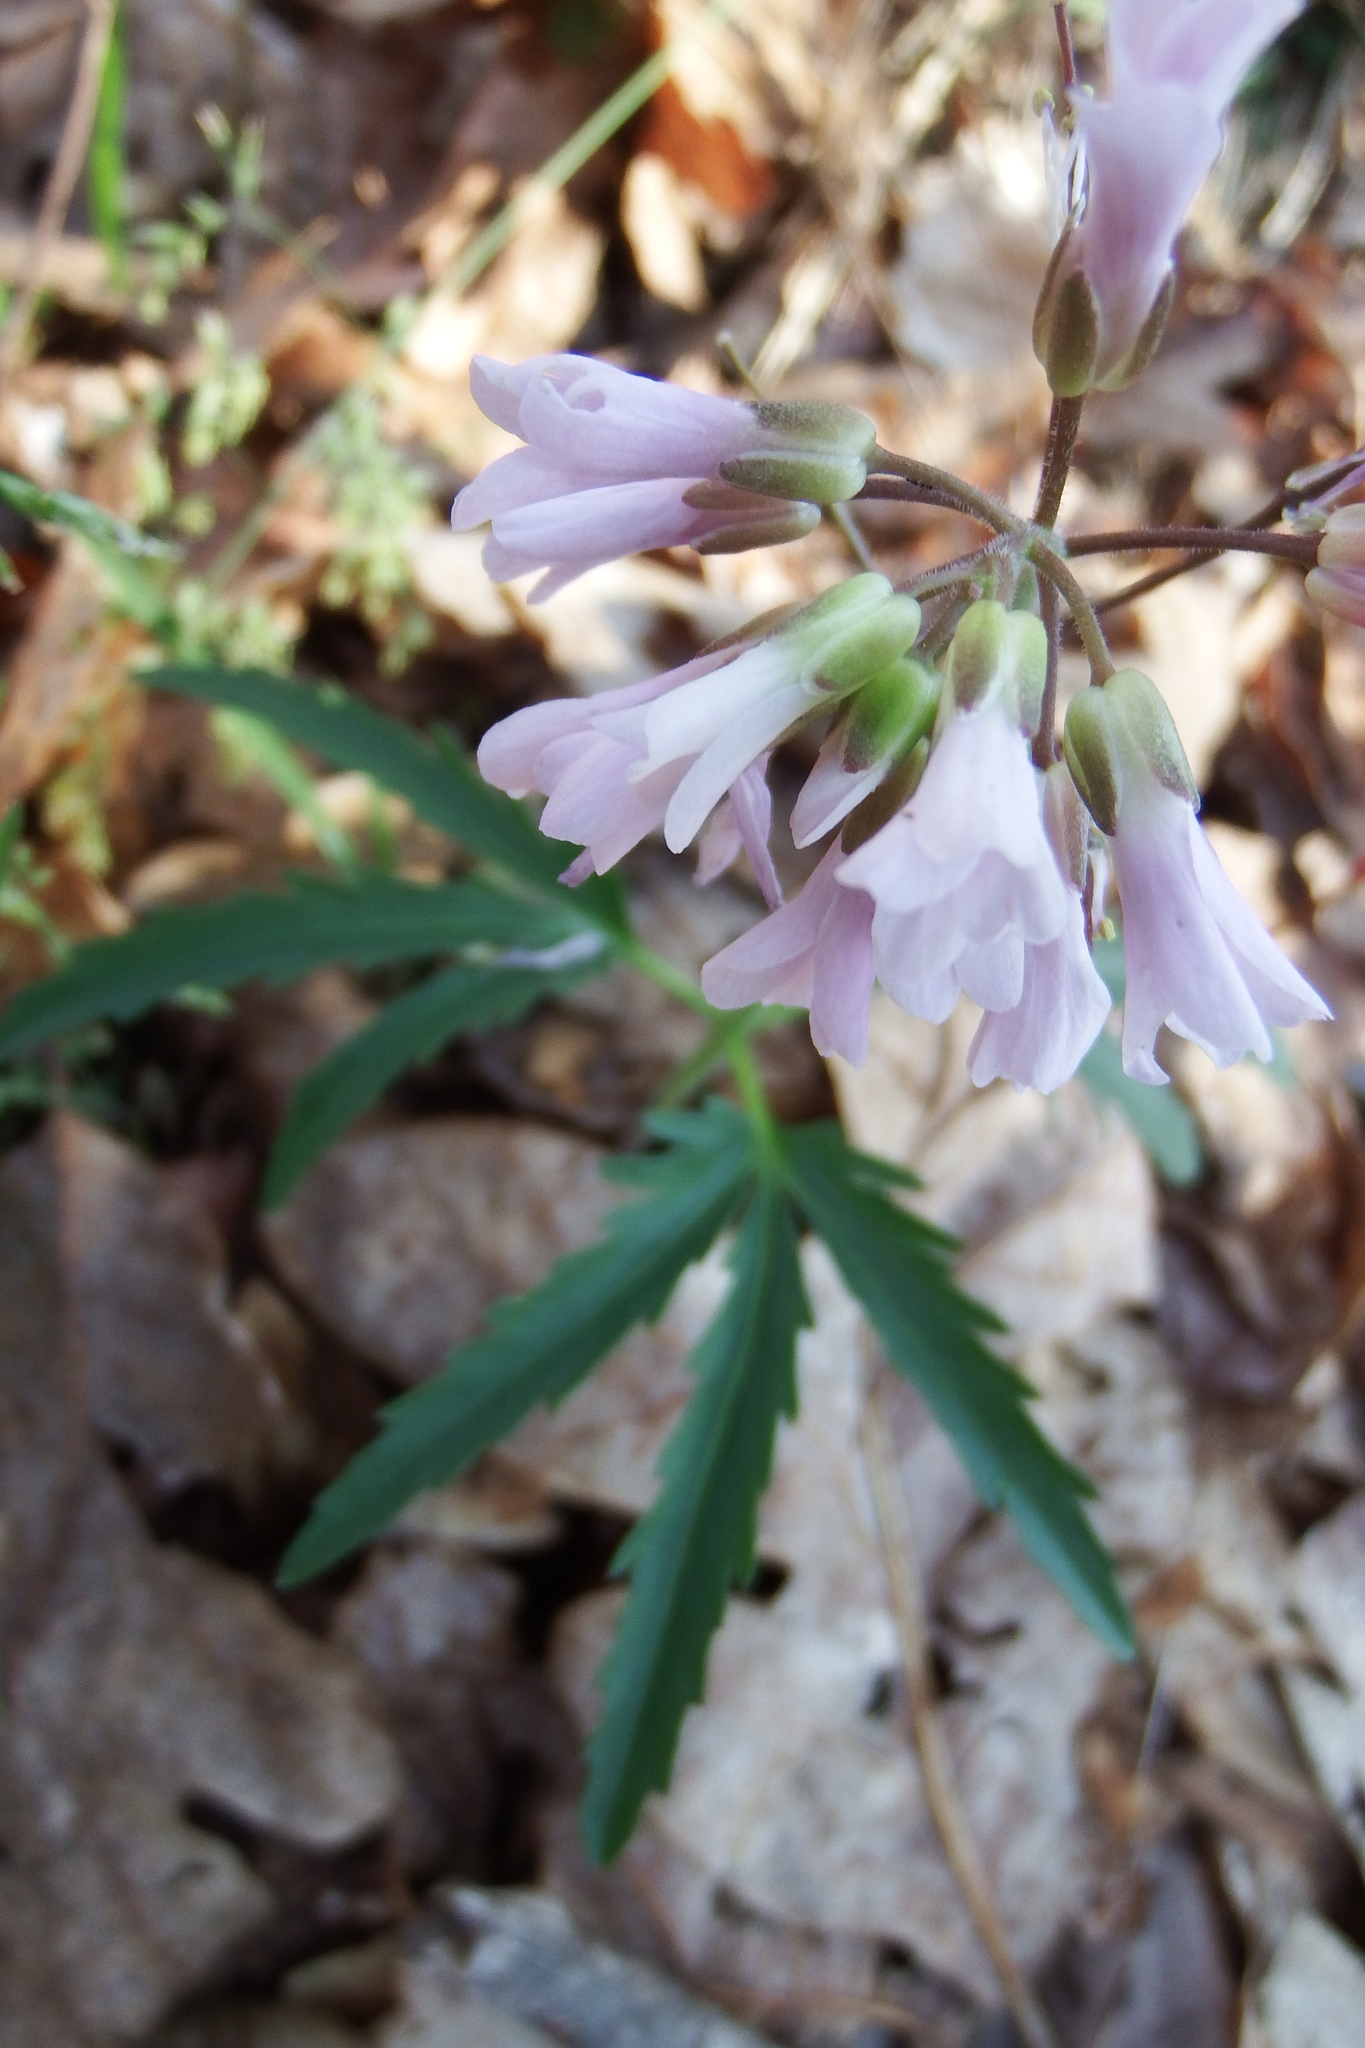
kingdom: Plantae
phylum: Tracheophyta
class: Magnoliopsida
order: Brassicales
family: Brassicaceae
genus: Cardamine
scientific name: Cardamine concatenata
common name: Cut-leaf toothcup
